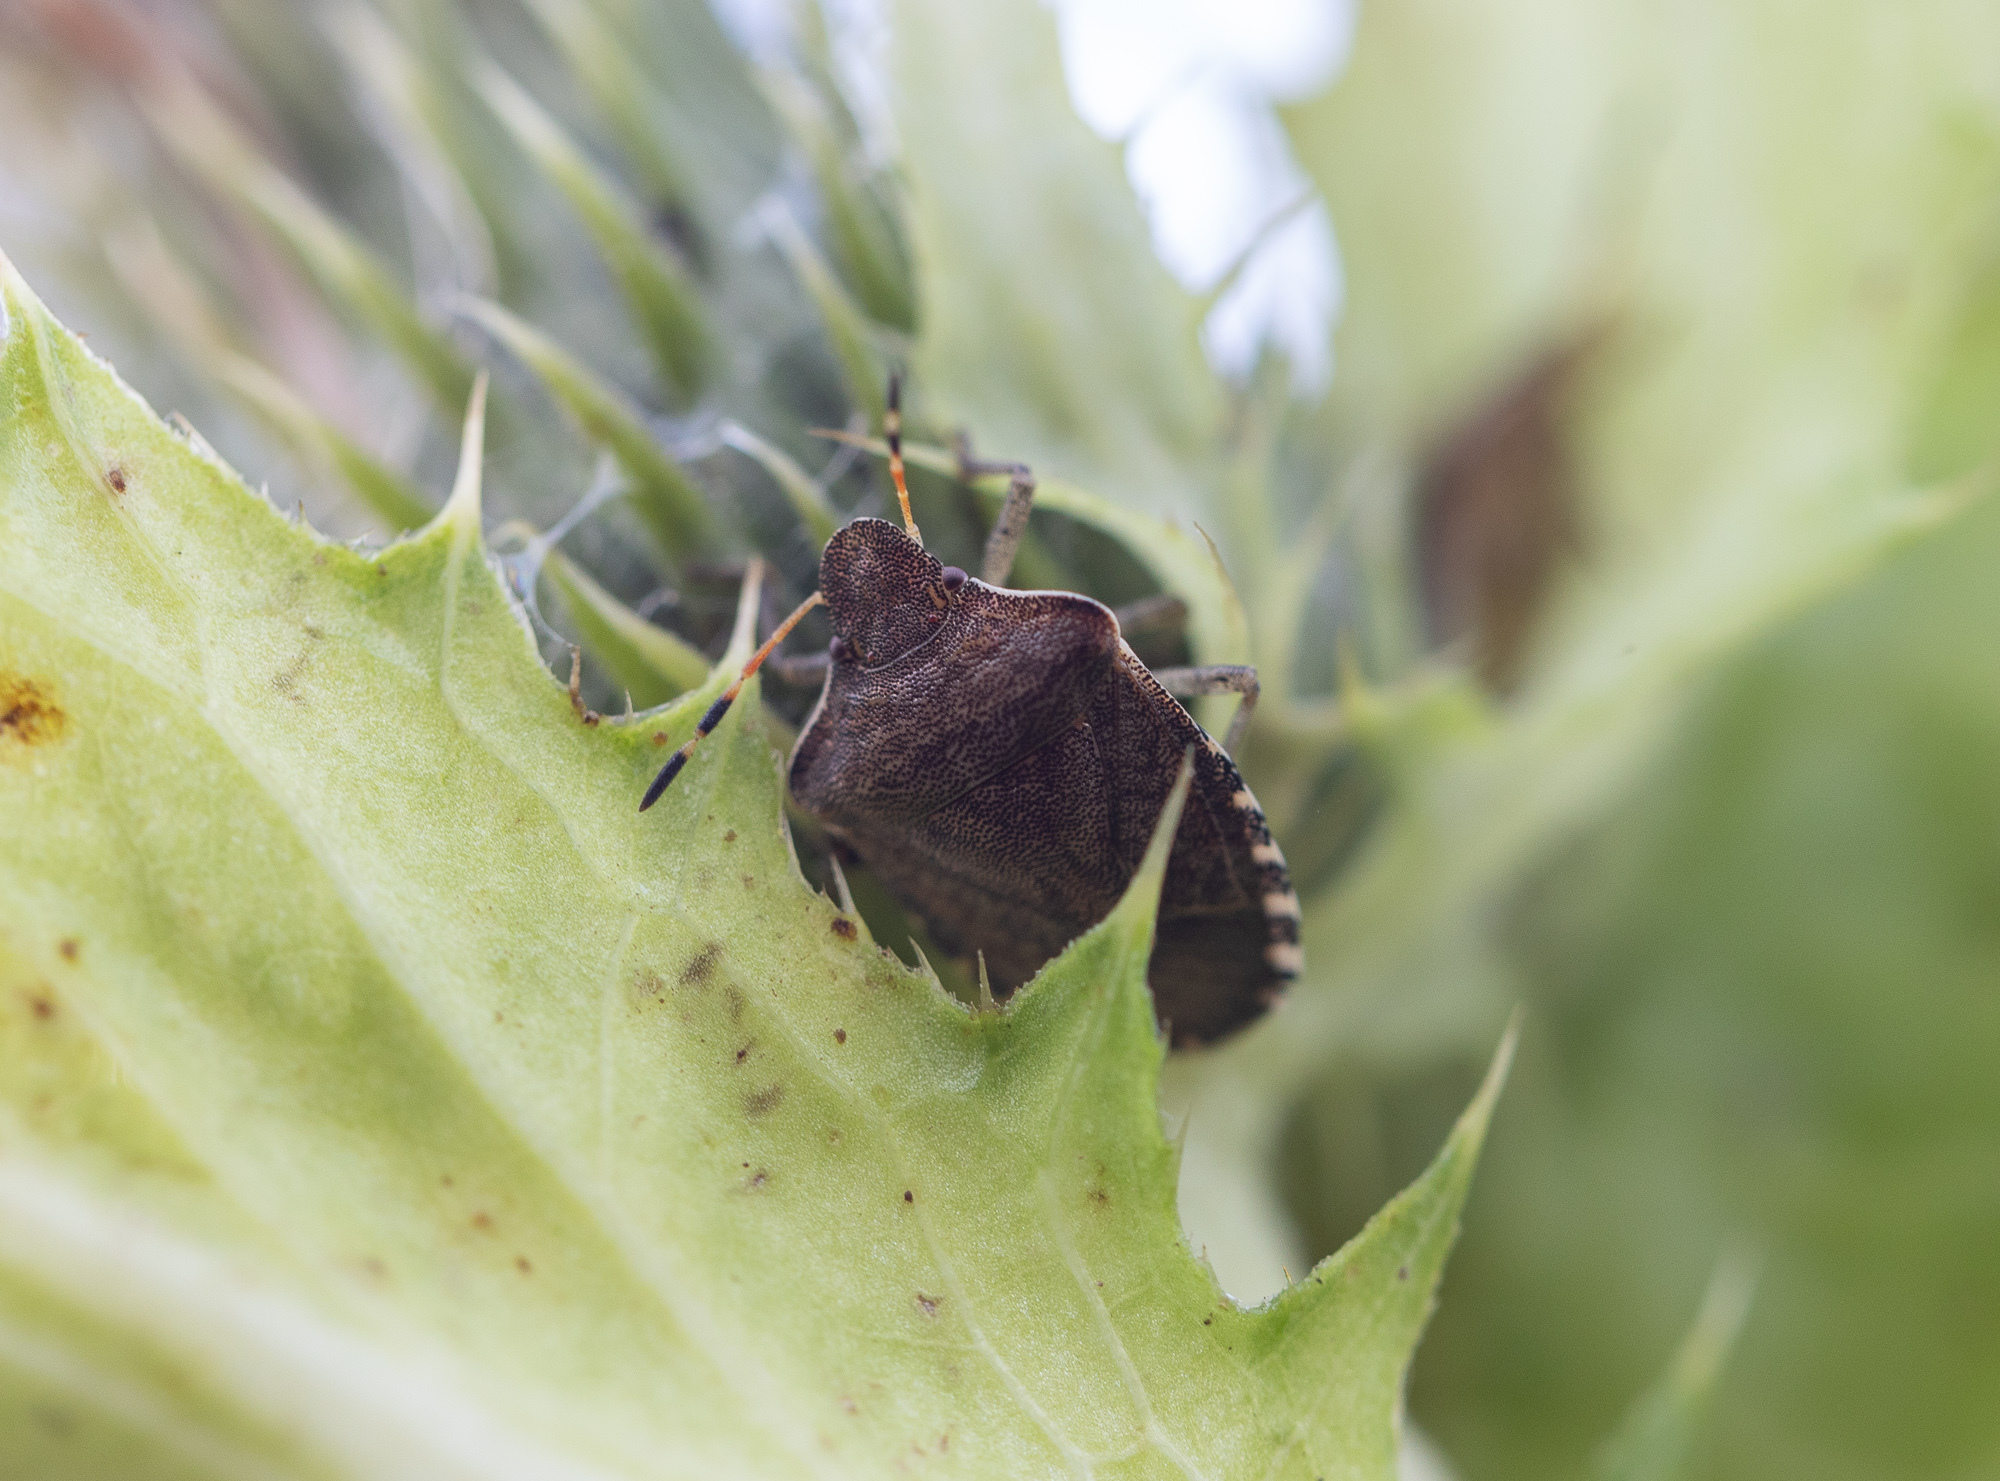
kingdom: Animalia
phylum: Arthropoda
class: Insecta
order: Hemiptera
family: Pentatomidae
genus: Holcostethus
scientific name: Holcostethus strictus
